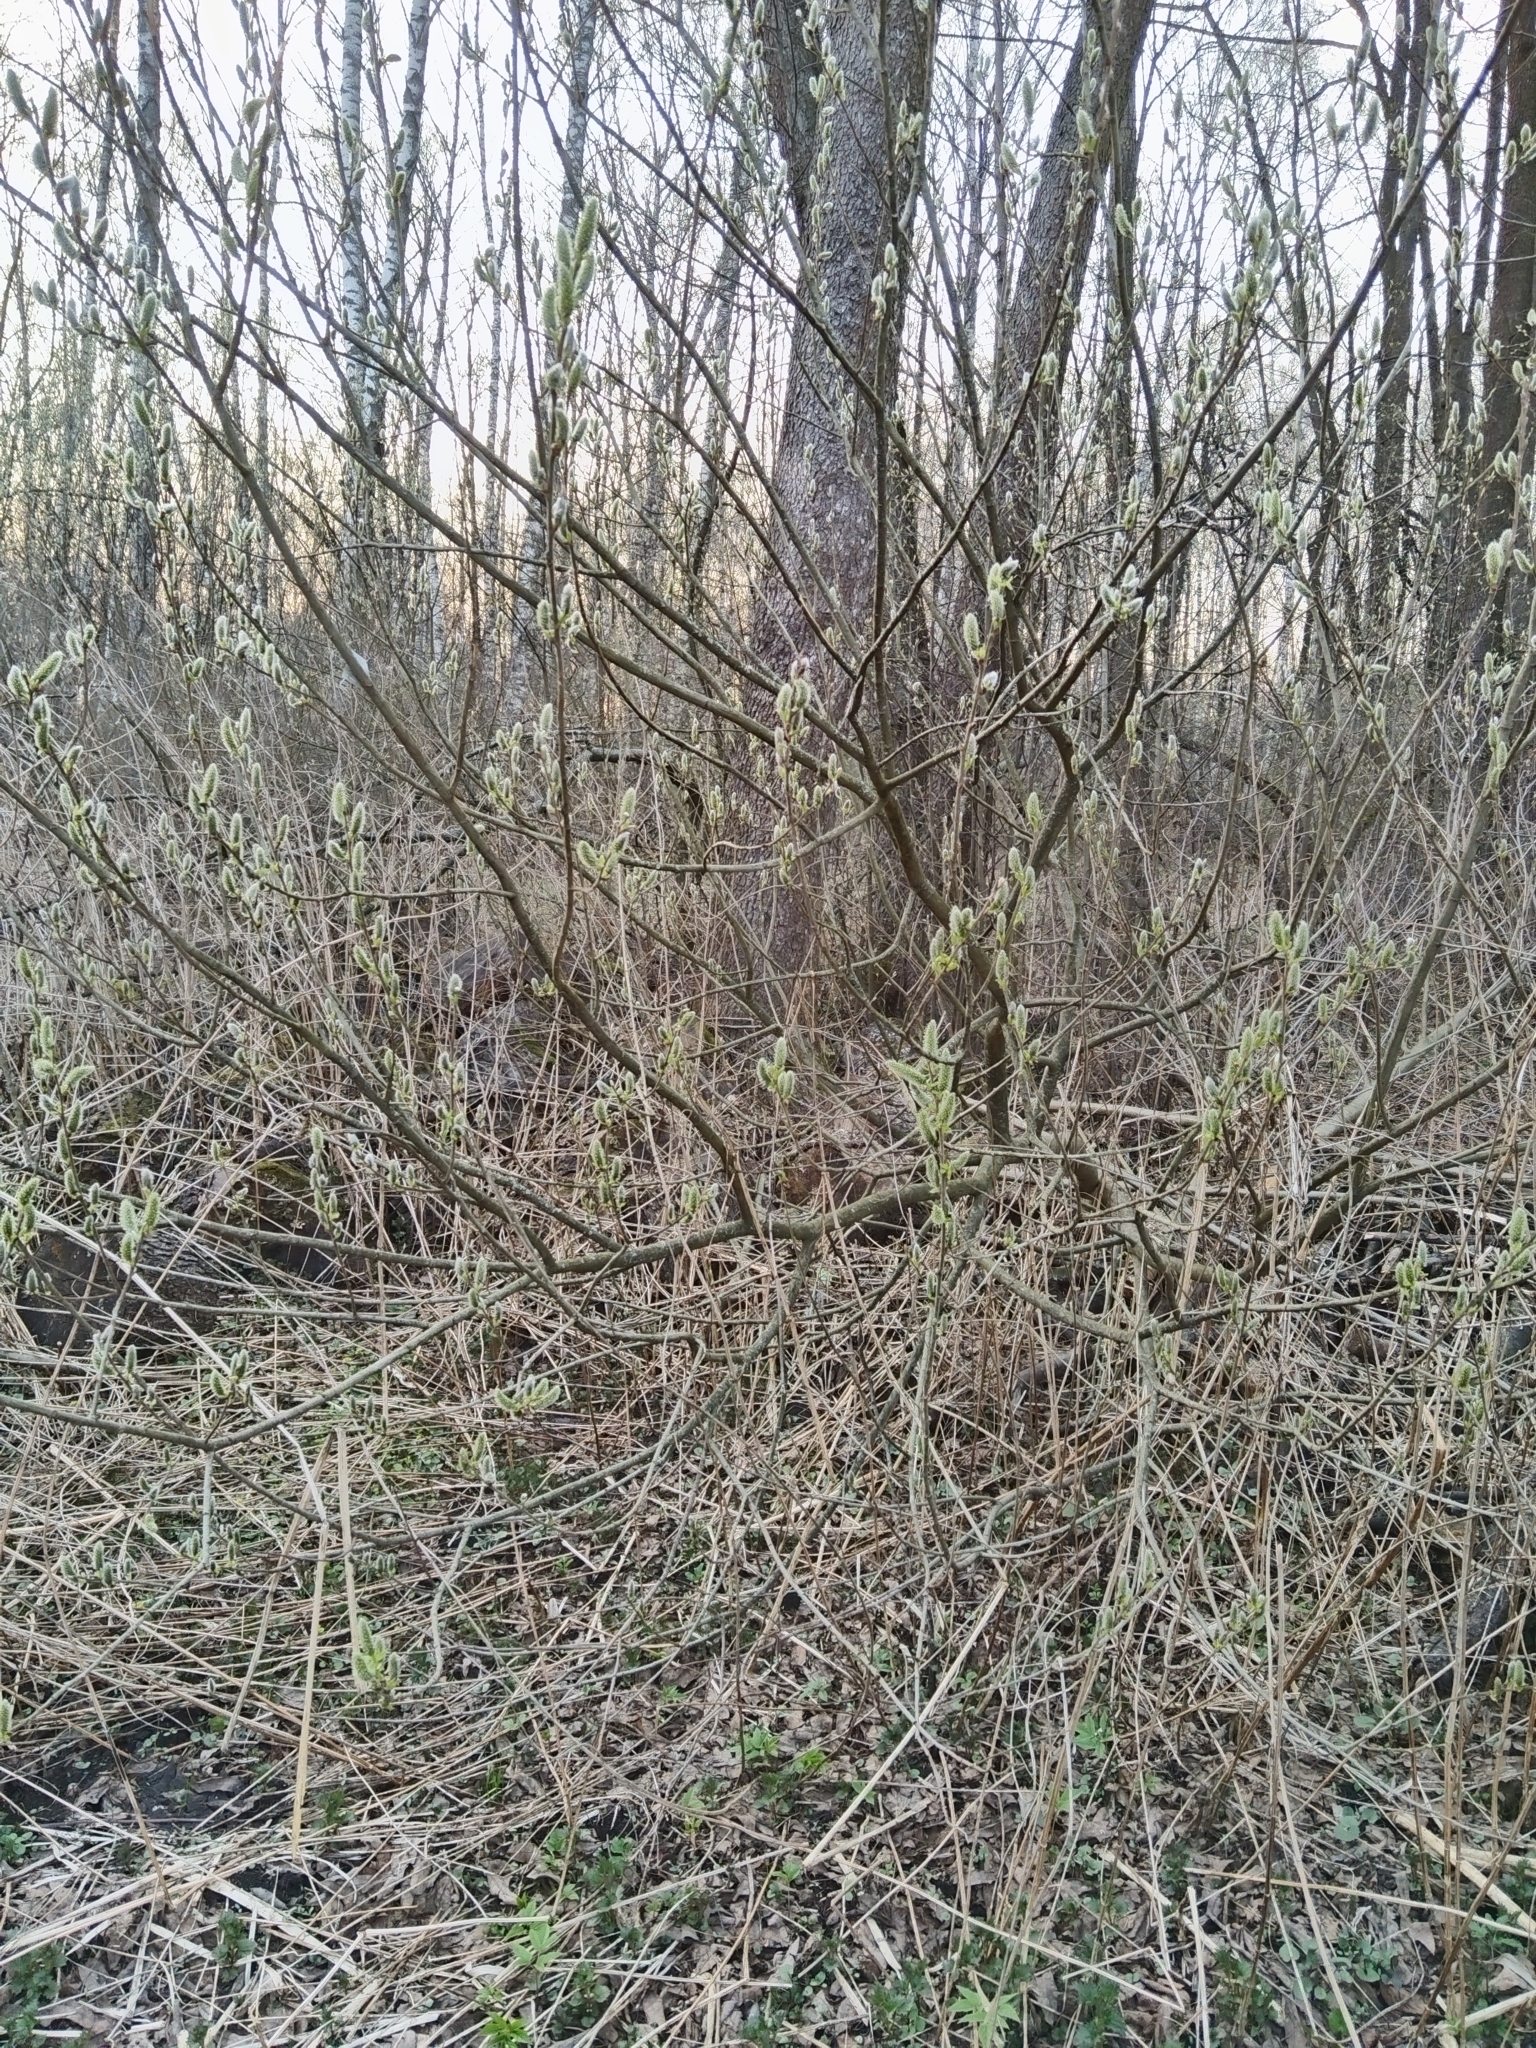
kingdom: Plantae
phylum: Tracheophyta
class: Magnoliopsida
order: Malpighiales
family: Salicaceae
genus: Salix
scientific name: Salix caprea
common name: Goat willow
